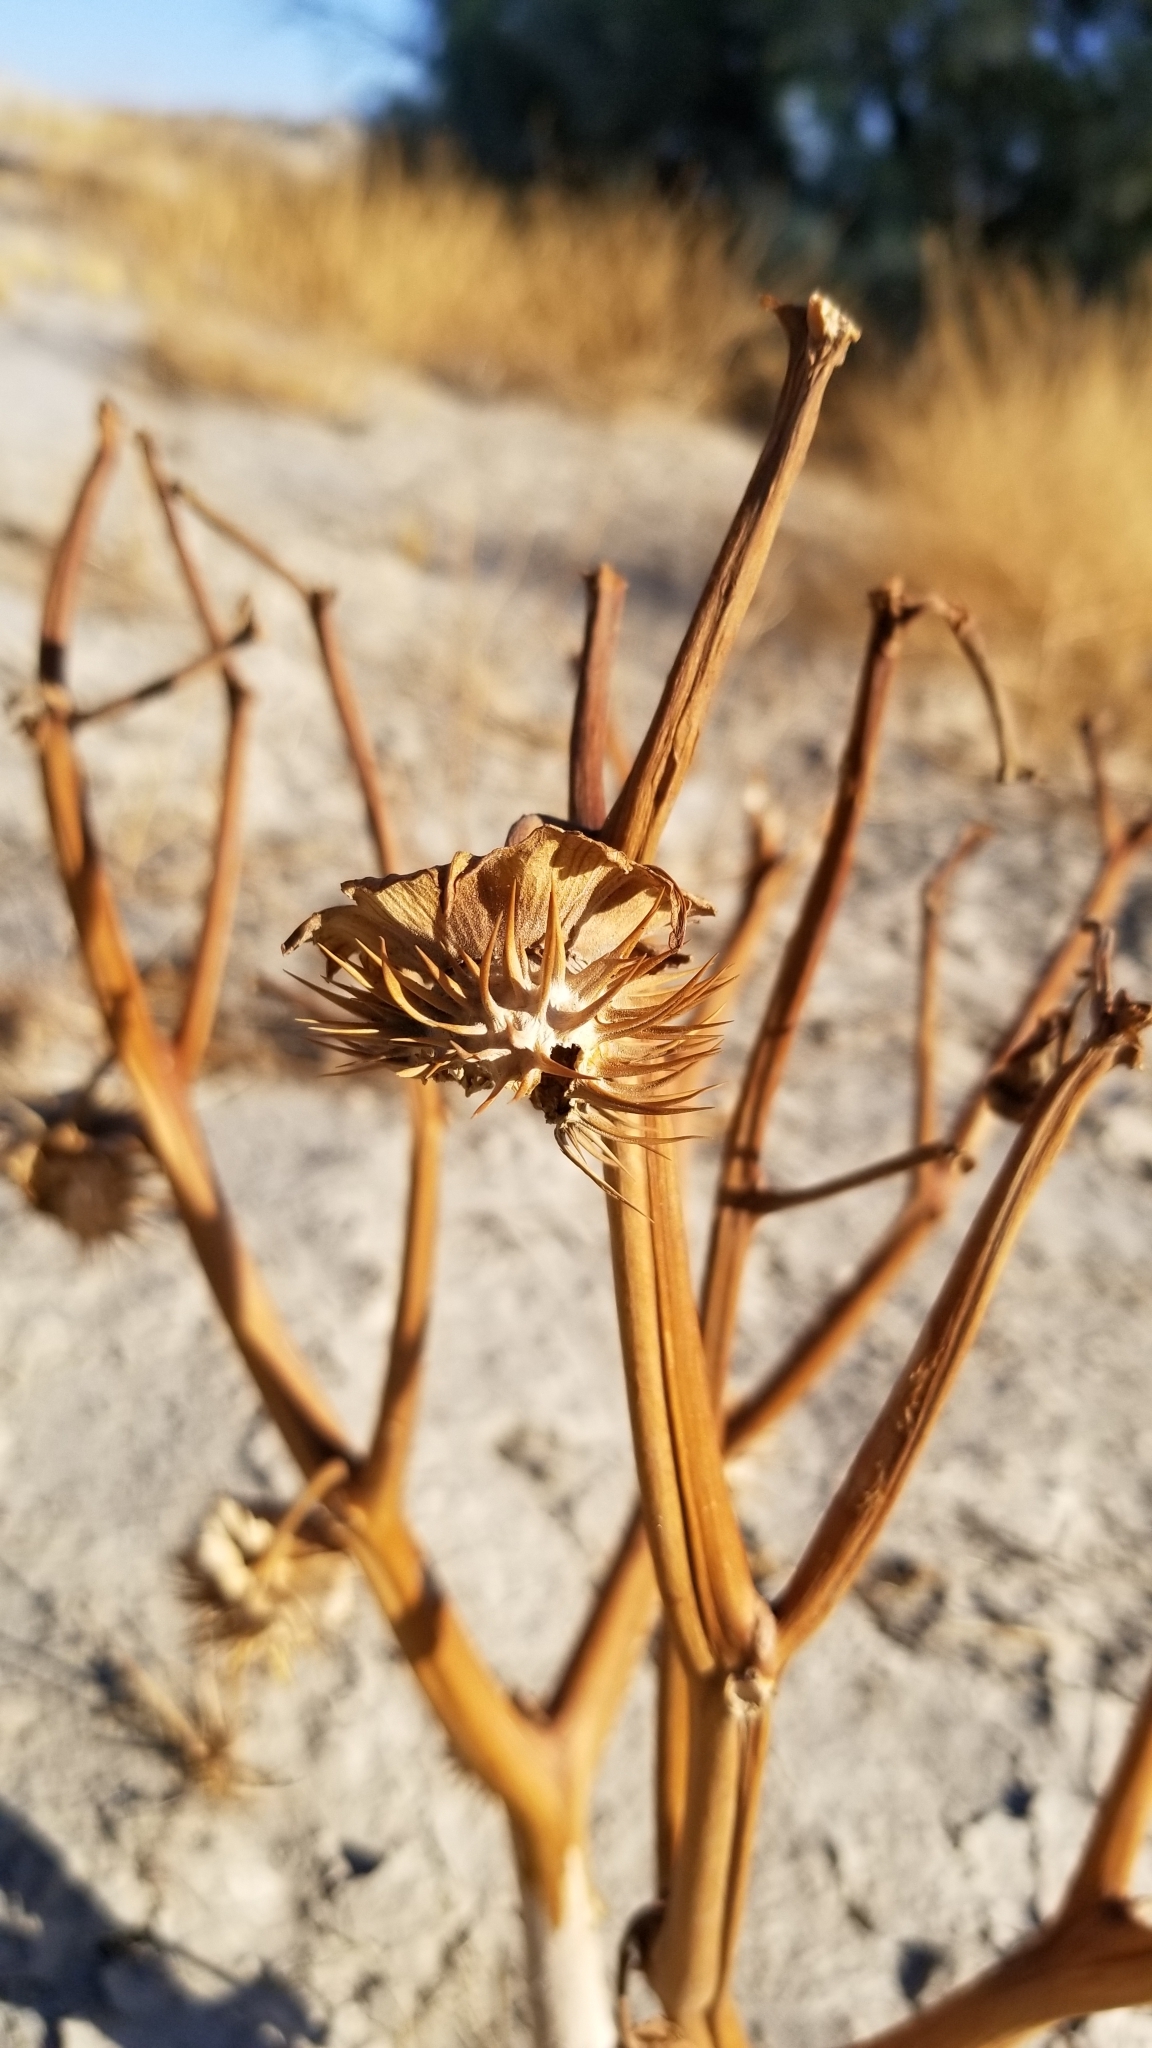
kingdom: Plantae
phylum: Tracheophyta
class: Magnoliopsida
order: Solanales
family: Solanaceae
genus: Datura
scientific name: Datura discolor
